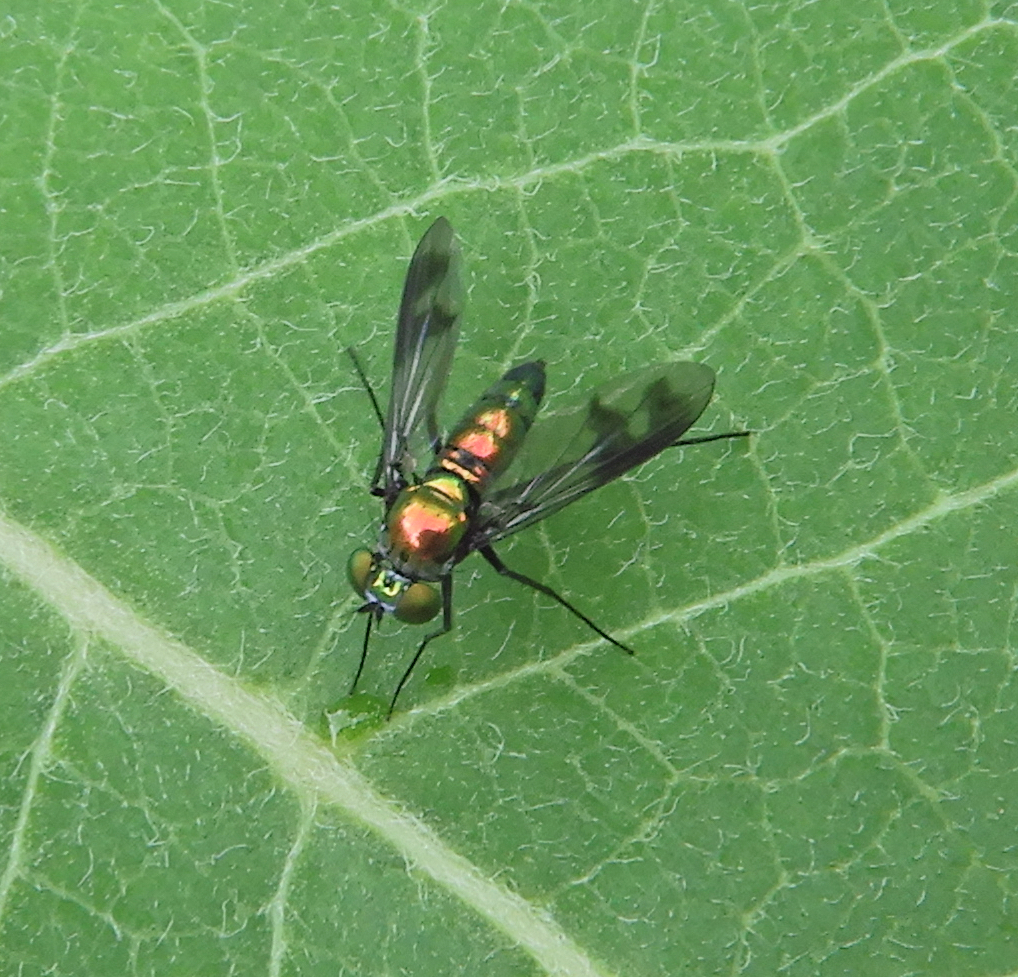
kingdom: Animalia
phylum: Arthropoda
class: Insecta
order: Diptera
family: Dolichopodidae
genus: Condylostylus
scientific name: Condylostylus patibulatus
